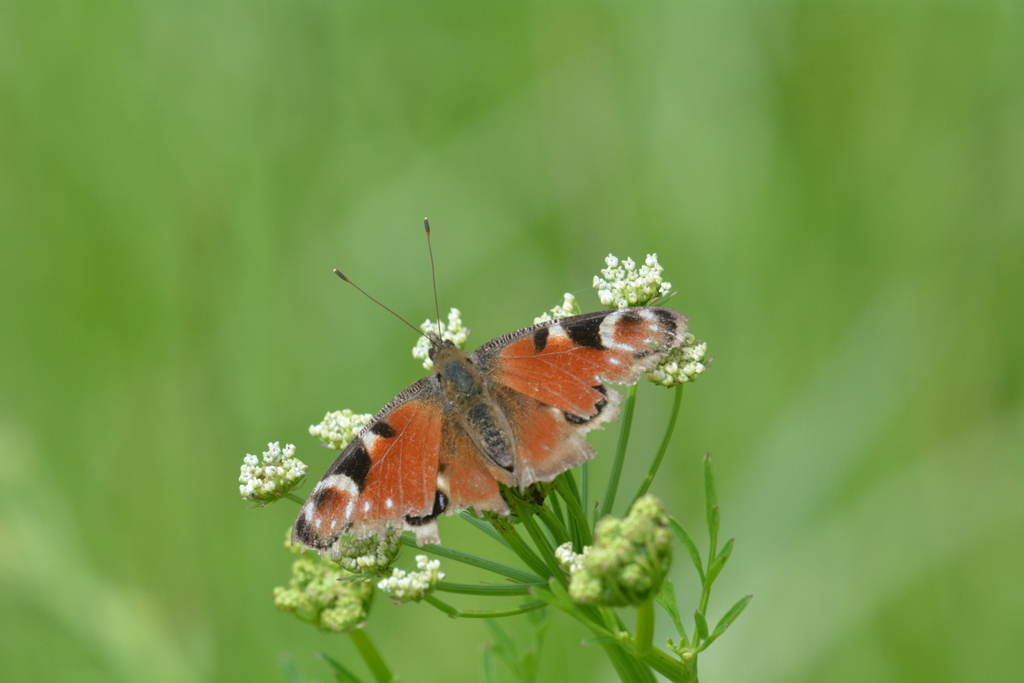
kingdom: Animalia
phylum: Arthropoda
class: Insecta
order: Lepidoptera
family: Nymphalidae
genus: Aglais
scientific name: Aglais io
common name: Peacock
